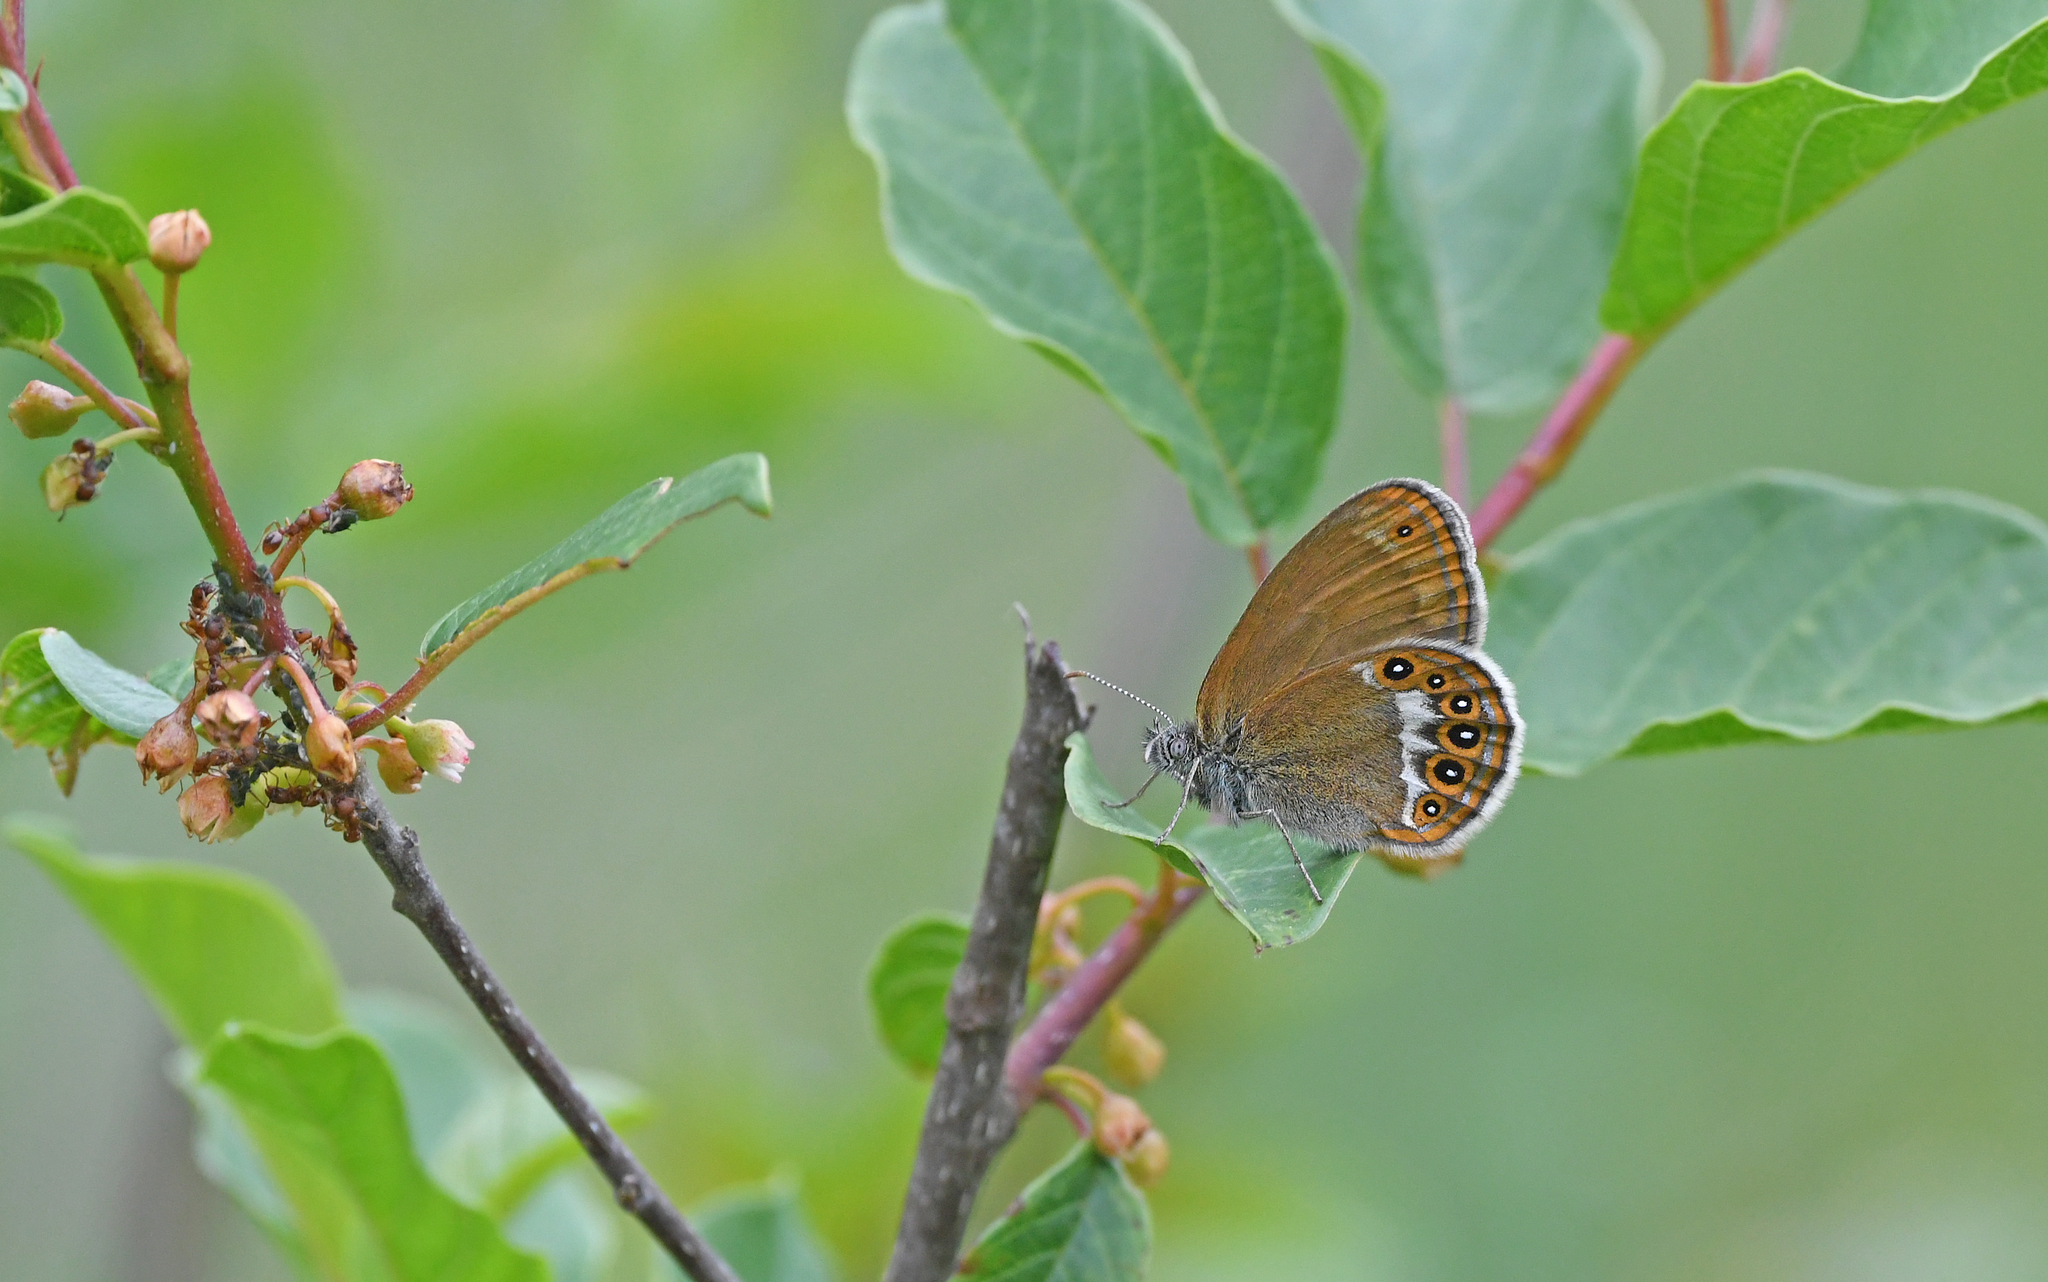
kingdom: Animalia
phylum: Arthropoda
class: Insecta
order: Lepidoptera
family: Nymphalidae
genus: Coenonympha
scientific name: Coenonympha hero
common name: Scarce heath
